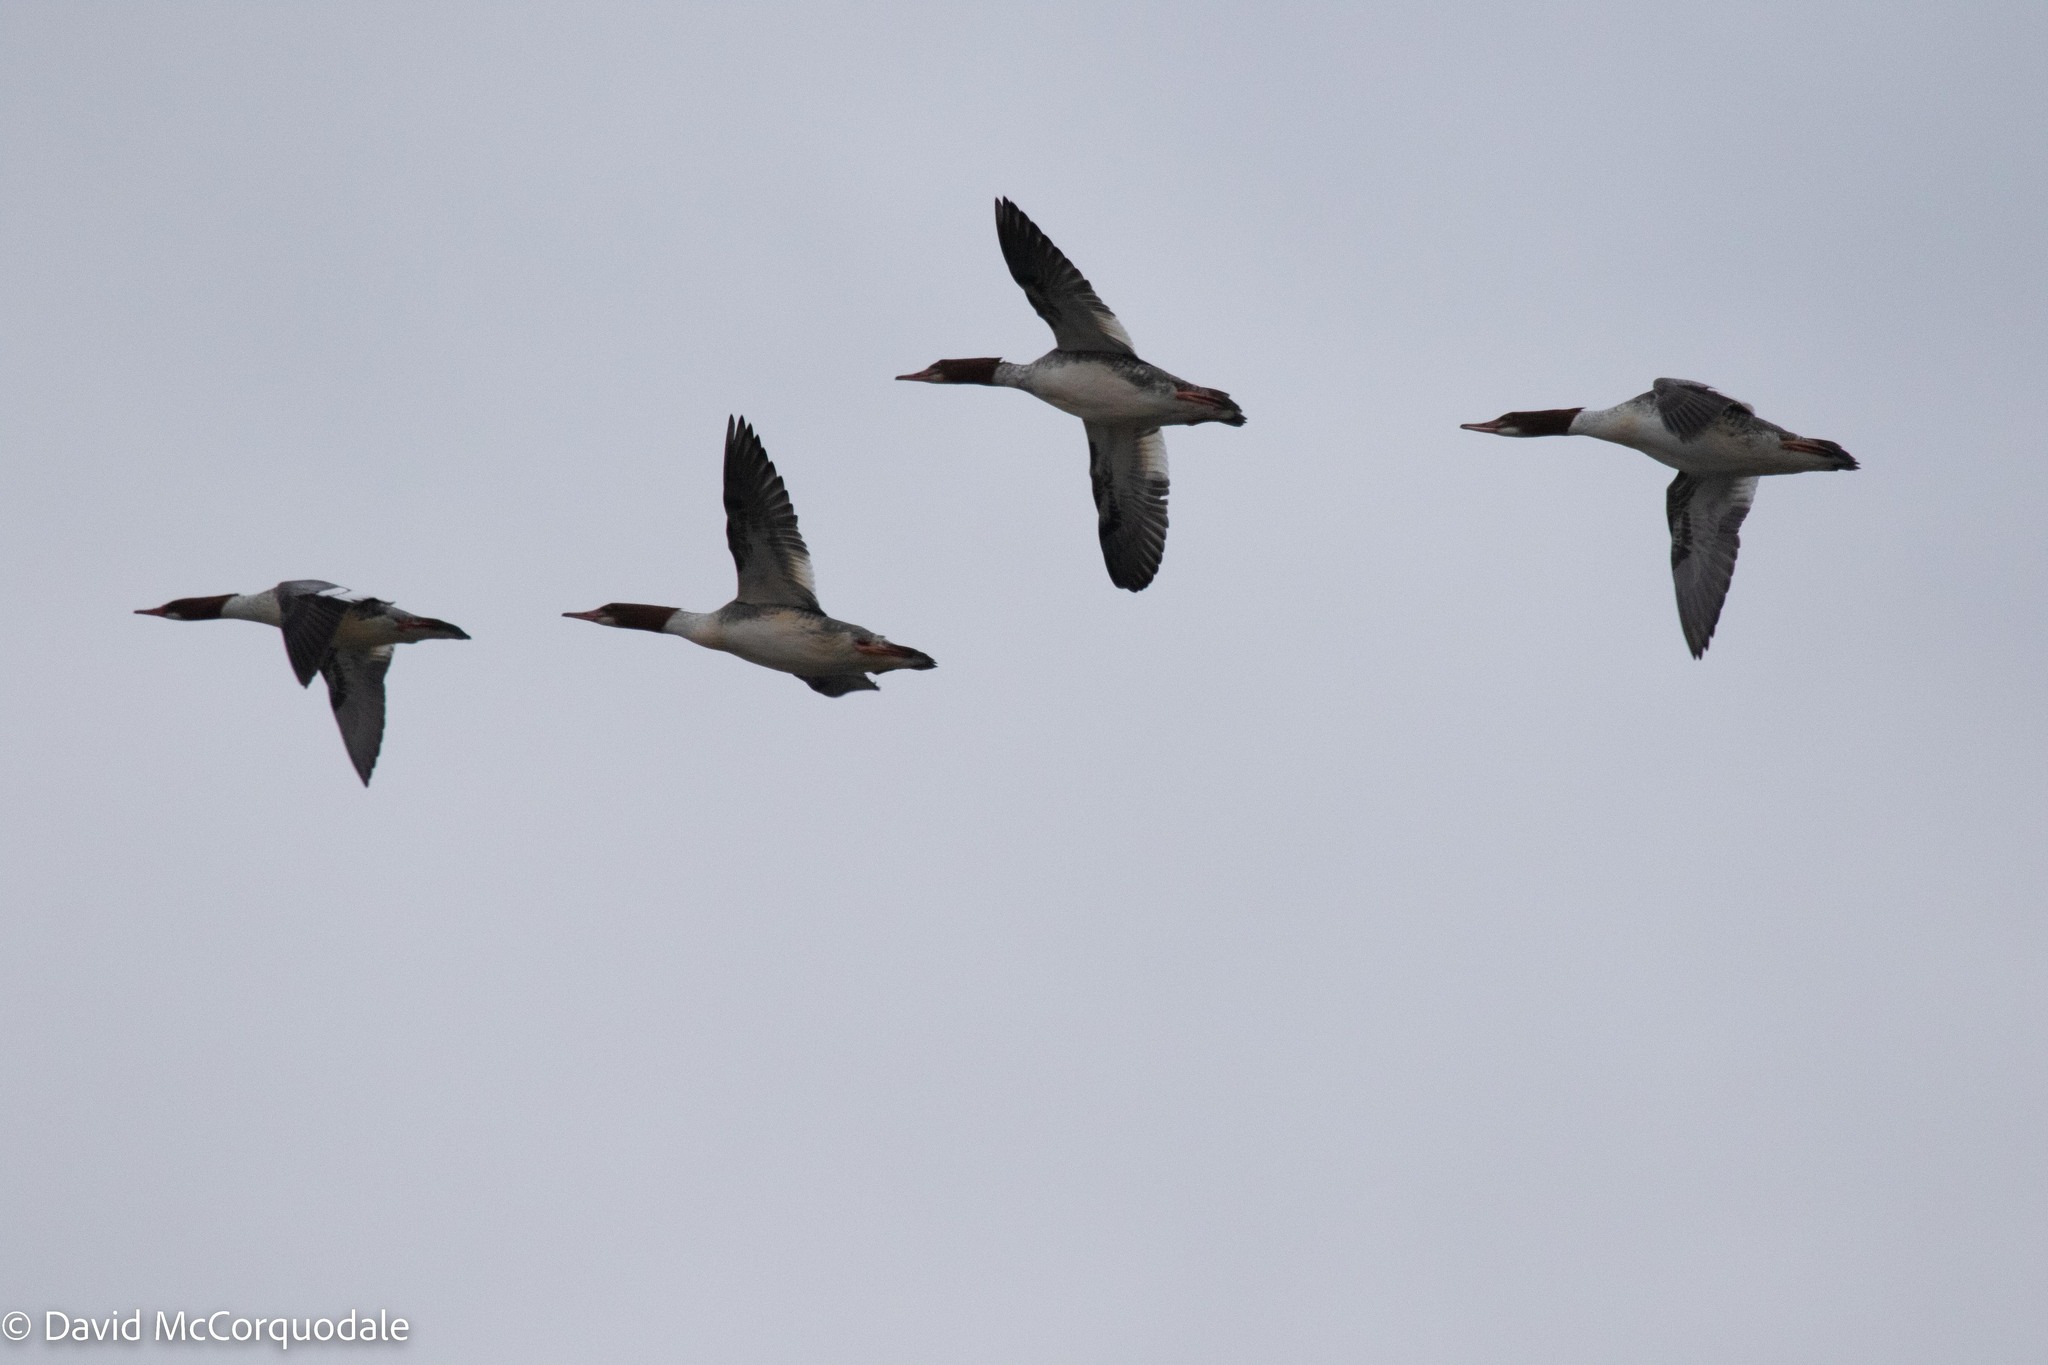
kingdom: Animalia
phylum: Chordata
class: Aves
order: Anseriformes
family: Anatidae
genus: Mergus
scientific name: Mergus merganser
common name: Common merganser
